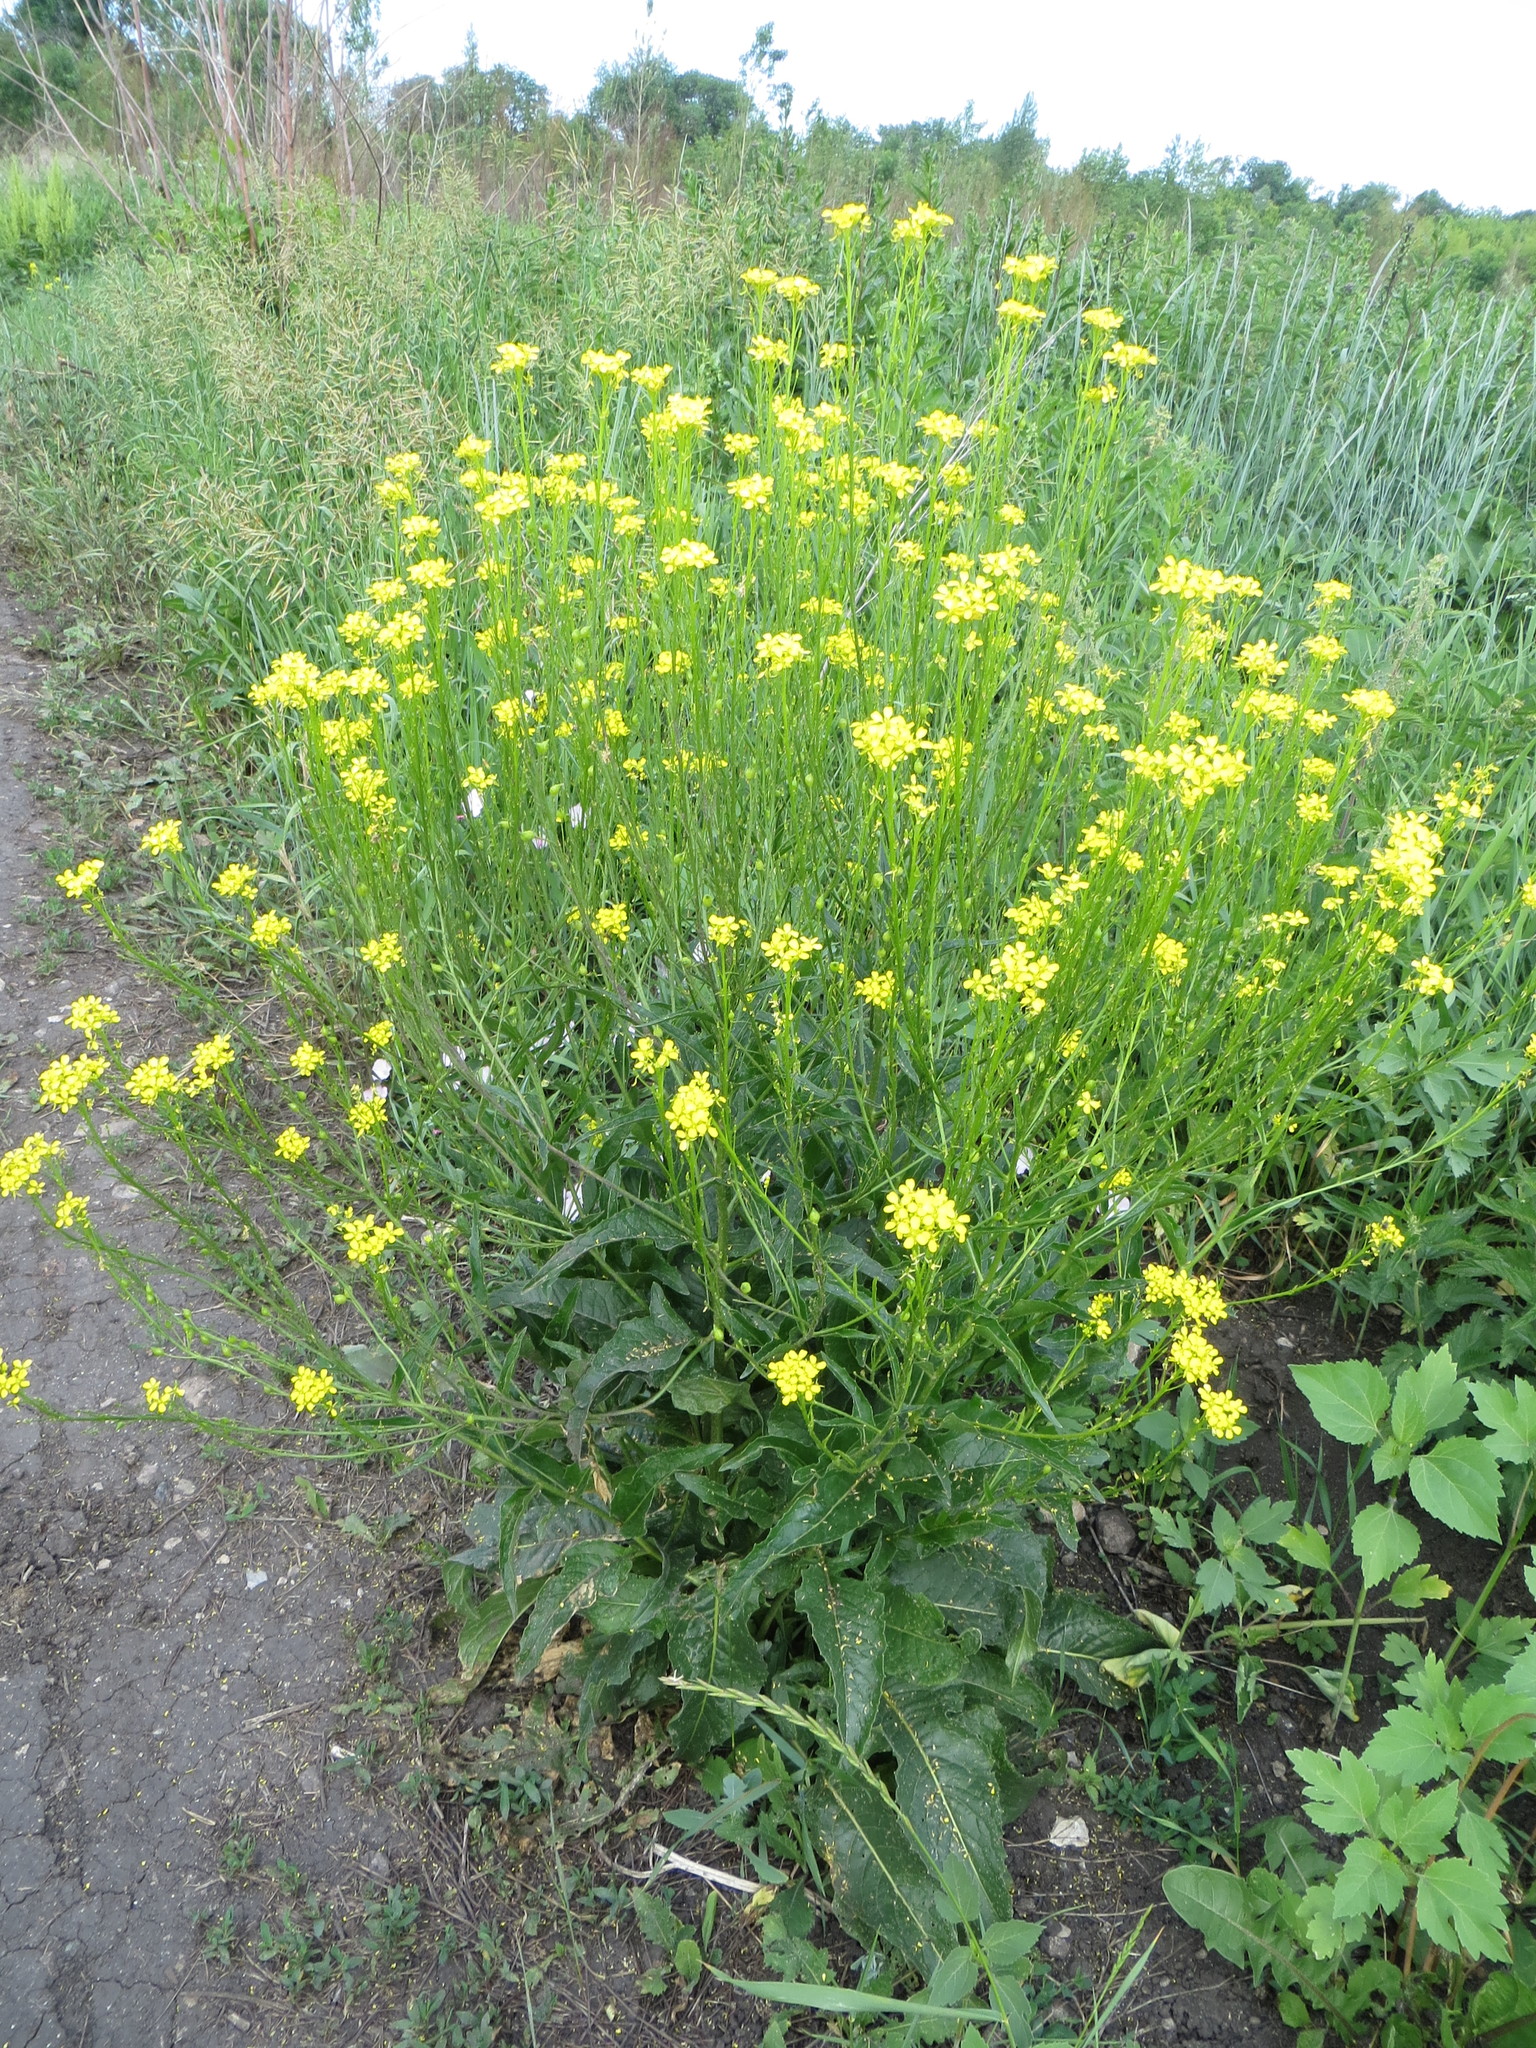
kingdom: Plantae
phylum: Tracheophyta
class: Magnoliopsida
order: Brassicales
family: Brassicaceae
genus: Bunias
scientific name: Bunias orientalis
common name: Warty-cabbage
